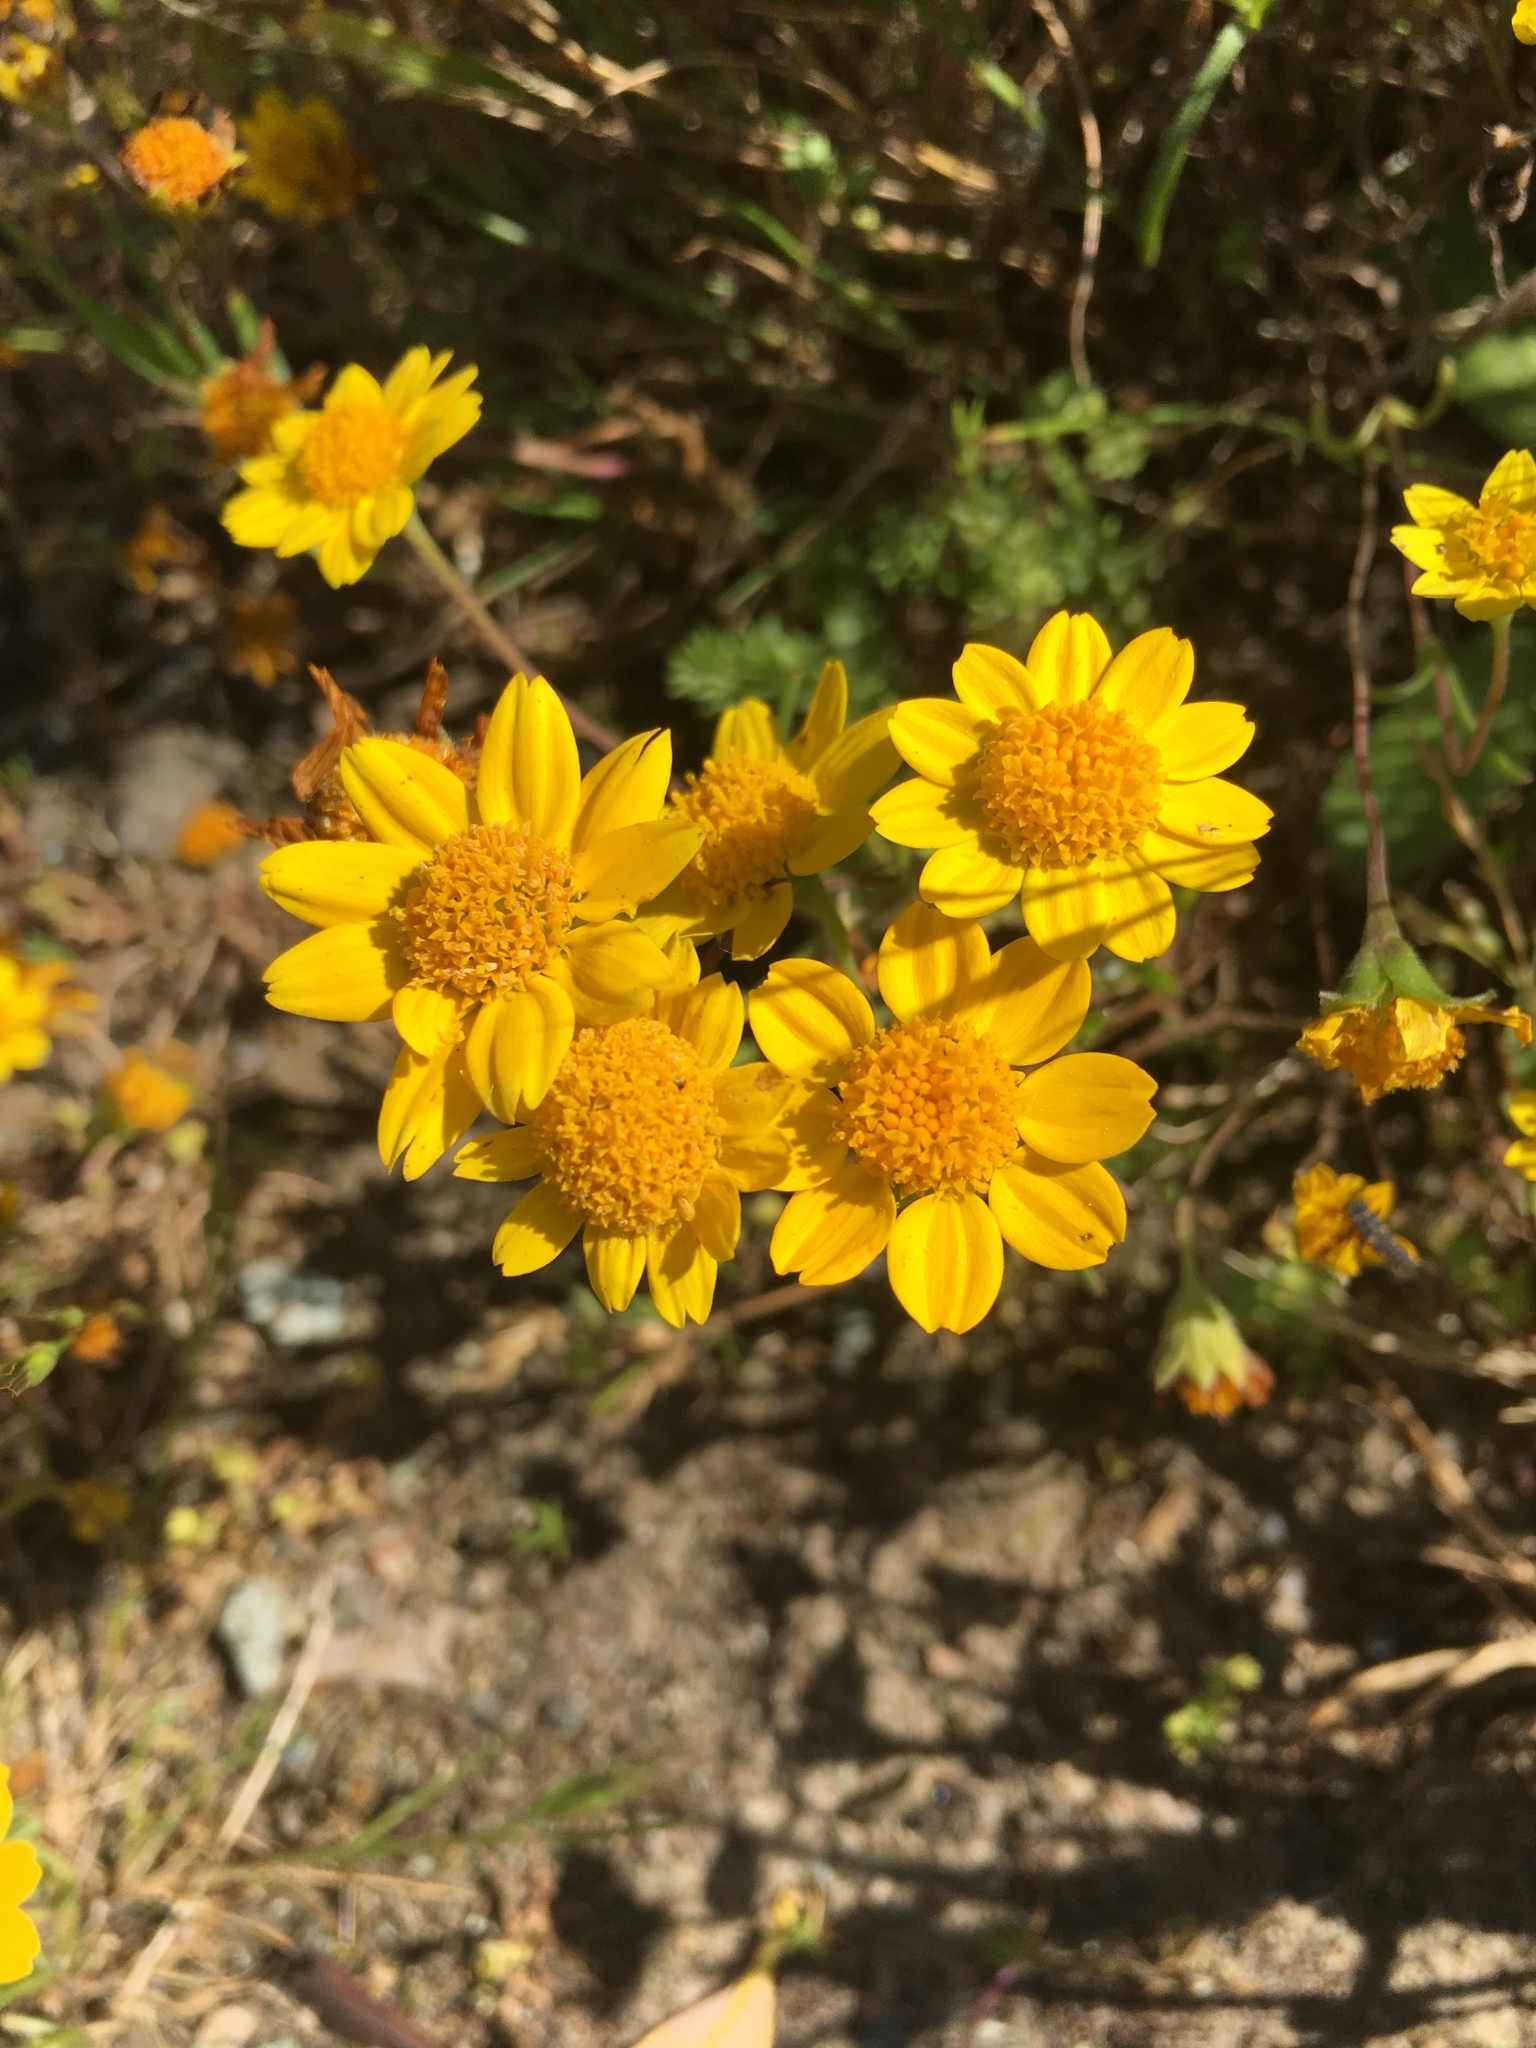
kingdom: Plantae
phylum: Tracheophyta
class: Magnoliopsida
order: Asterales
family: Asteraceae
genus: Lasthenia
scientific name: Lasthenia californica
